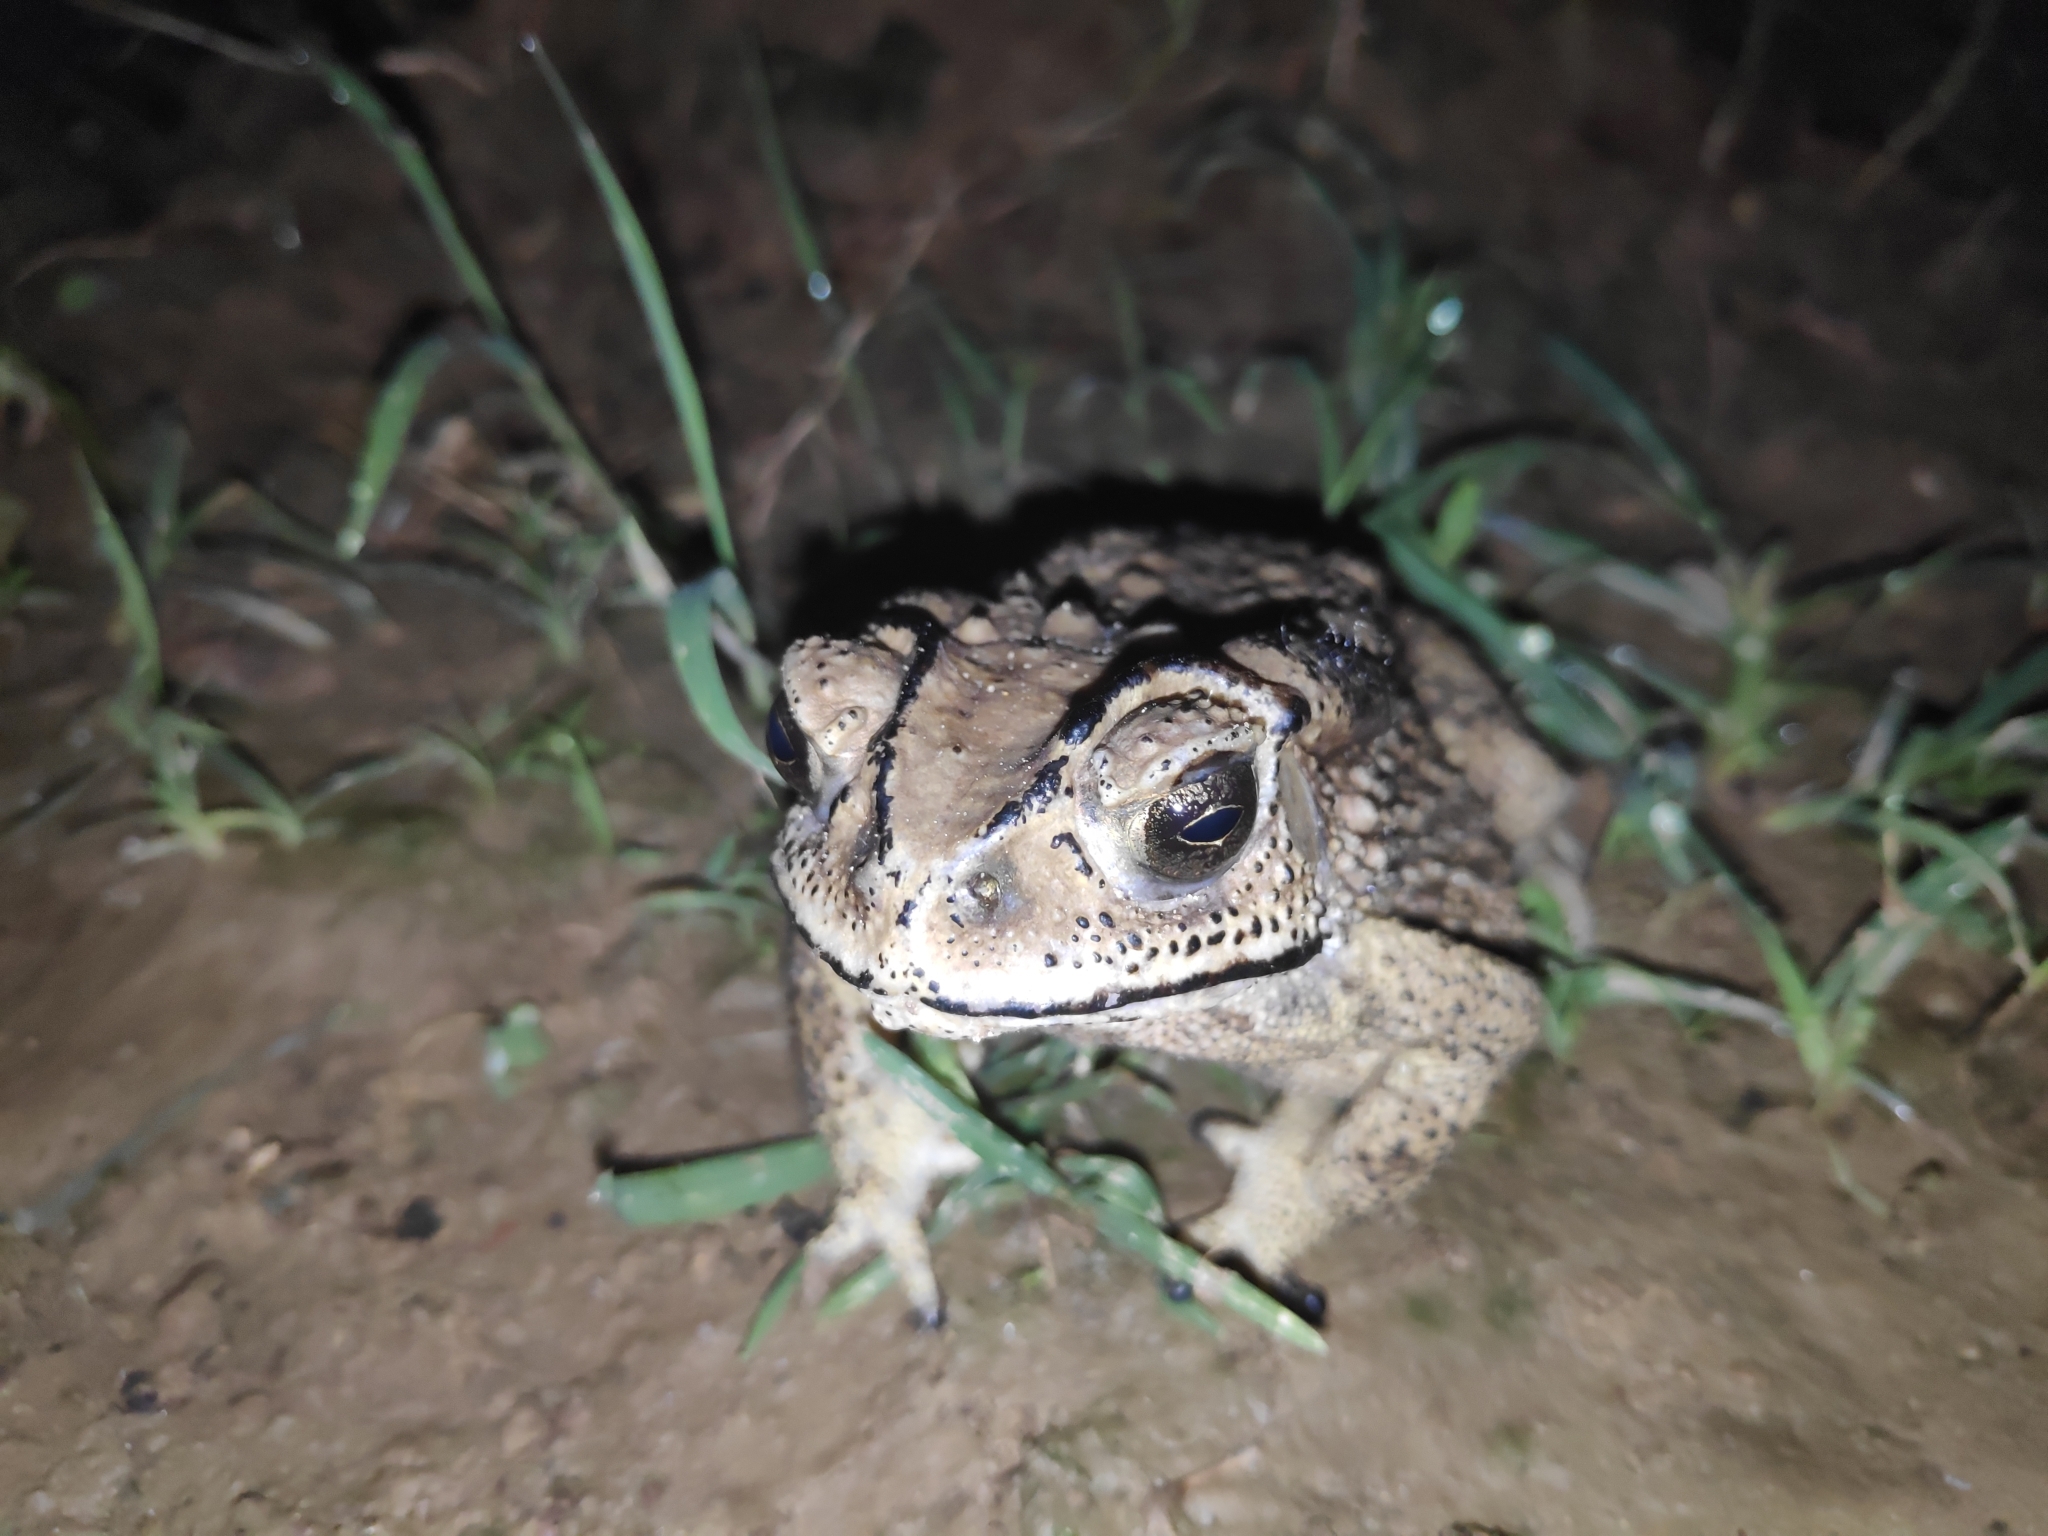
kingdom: Animalia
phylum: Chordata
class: Amphibia
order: Anura
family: Bufonidae
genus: Duttaphrynus
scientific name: Duttaphrynus melanostictus
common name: Common sunda toad
